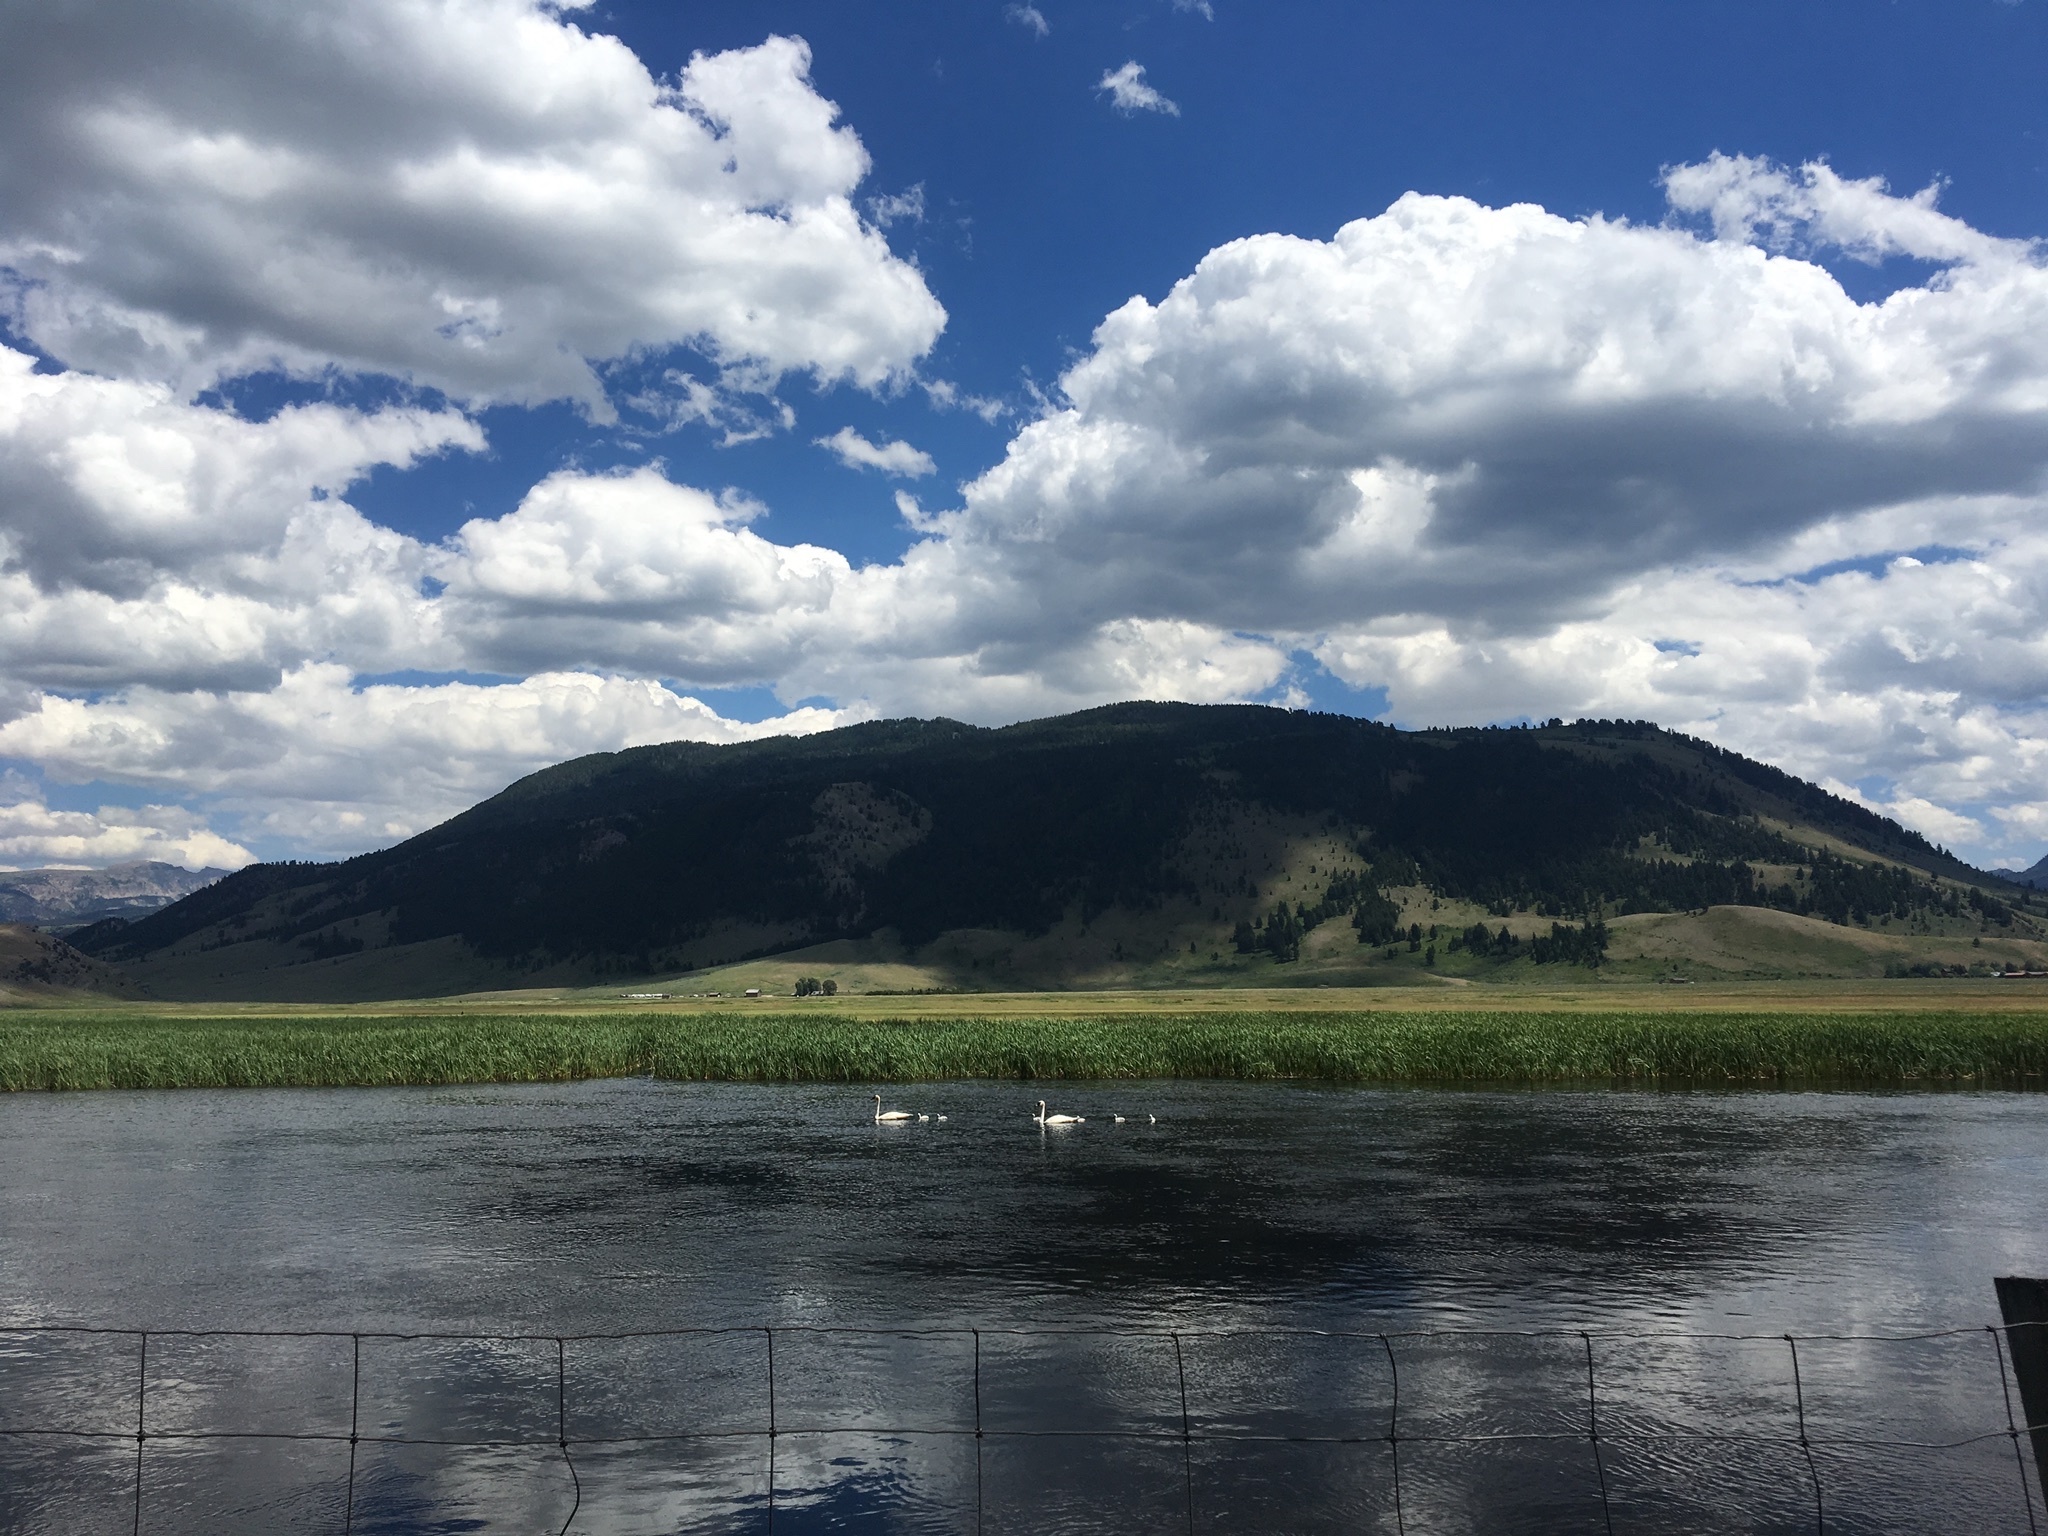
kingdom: Animalia
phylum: Chordata
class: Aves
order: Anseriformes
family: Anatidae
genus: Cygnus
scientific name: Cygnus buccinator
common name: Trumpeter swan
